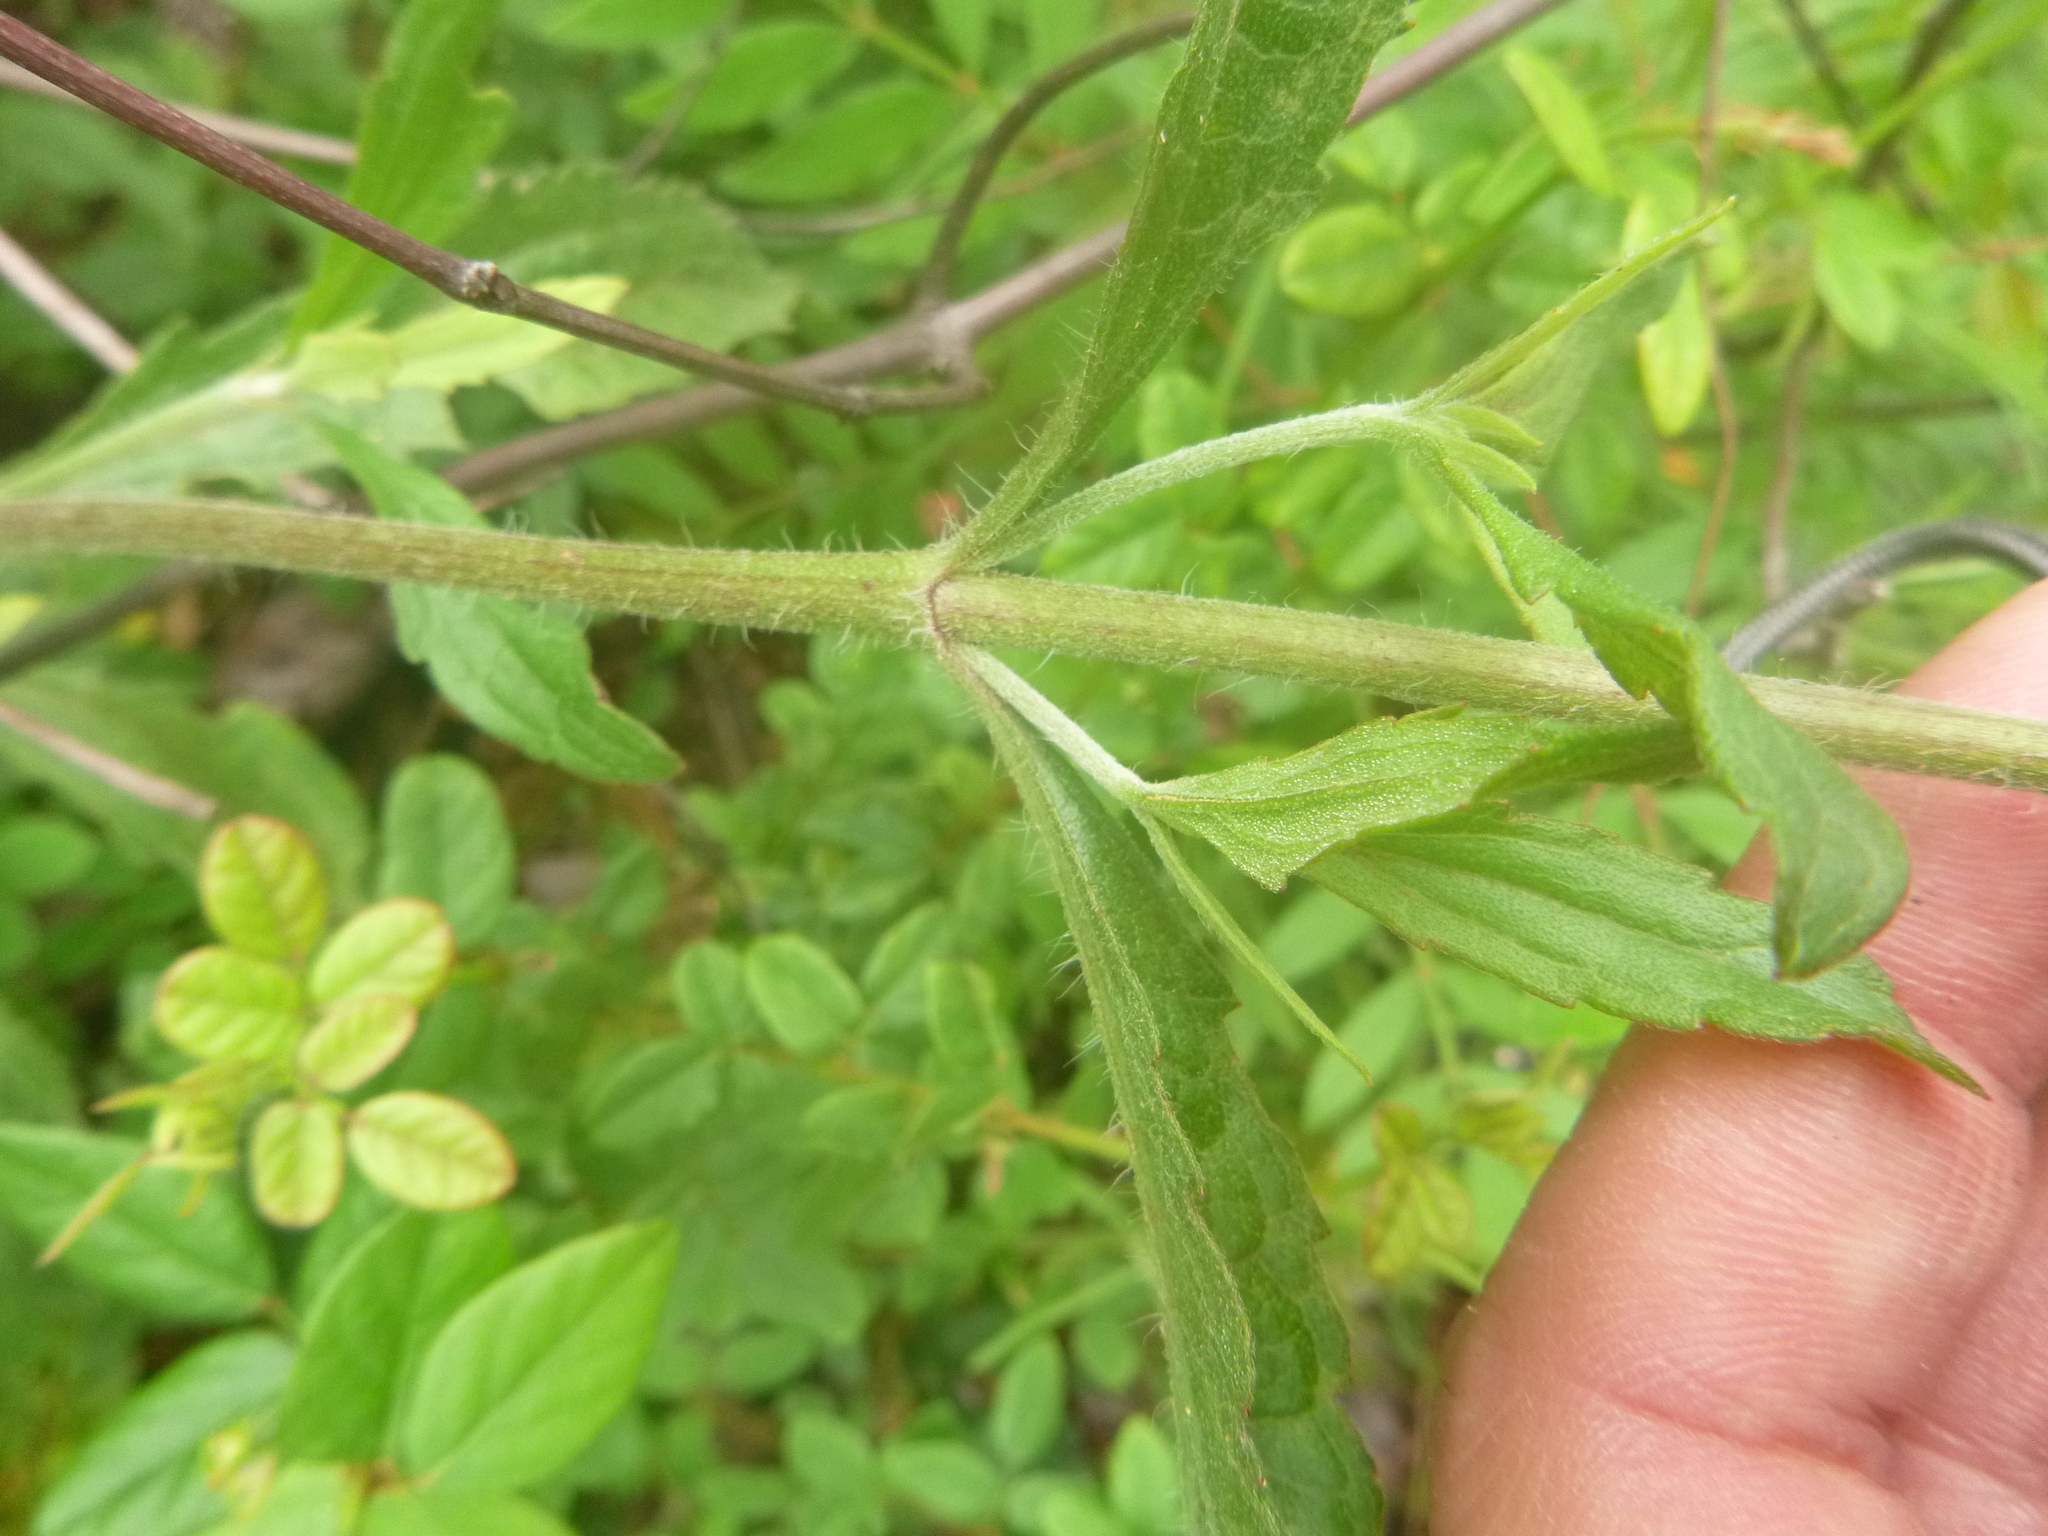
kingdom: Plantae
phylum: Tracheophyta
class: Magnoliopsida
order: Asterales
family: Asteraceae
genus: Eupatorium
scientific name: Eupatorium album
